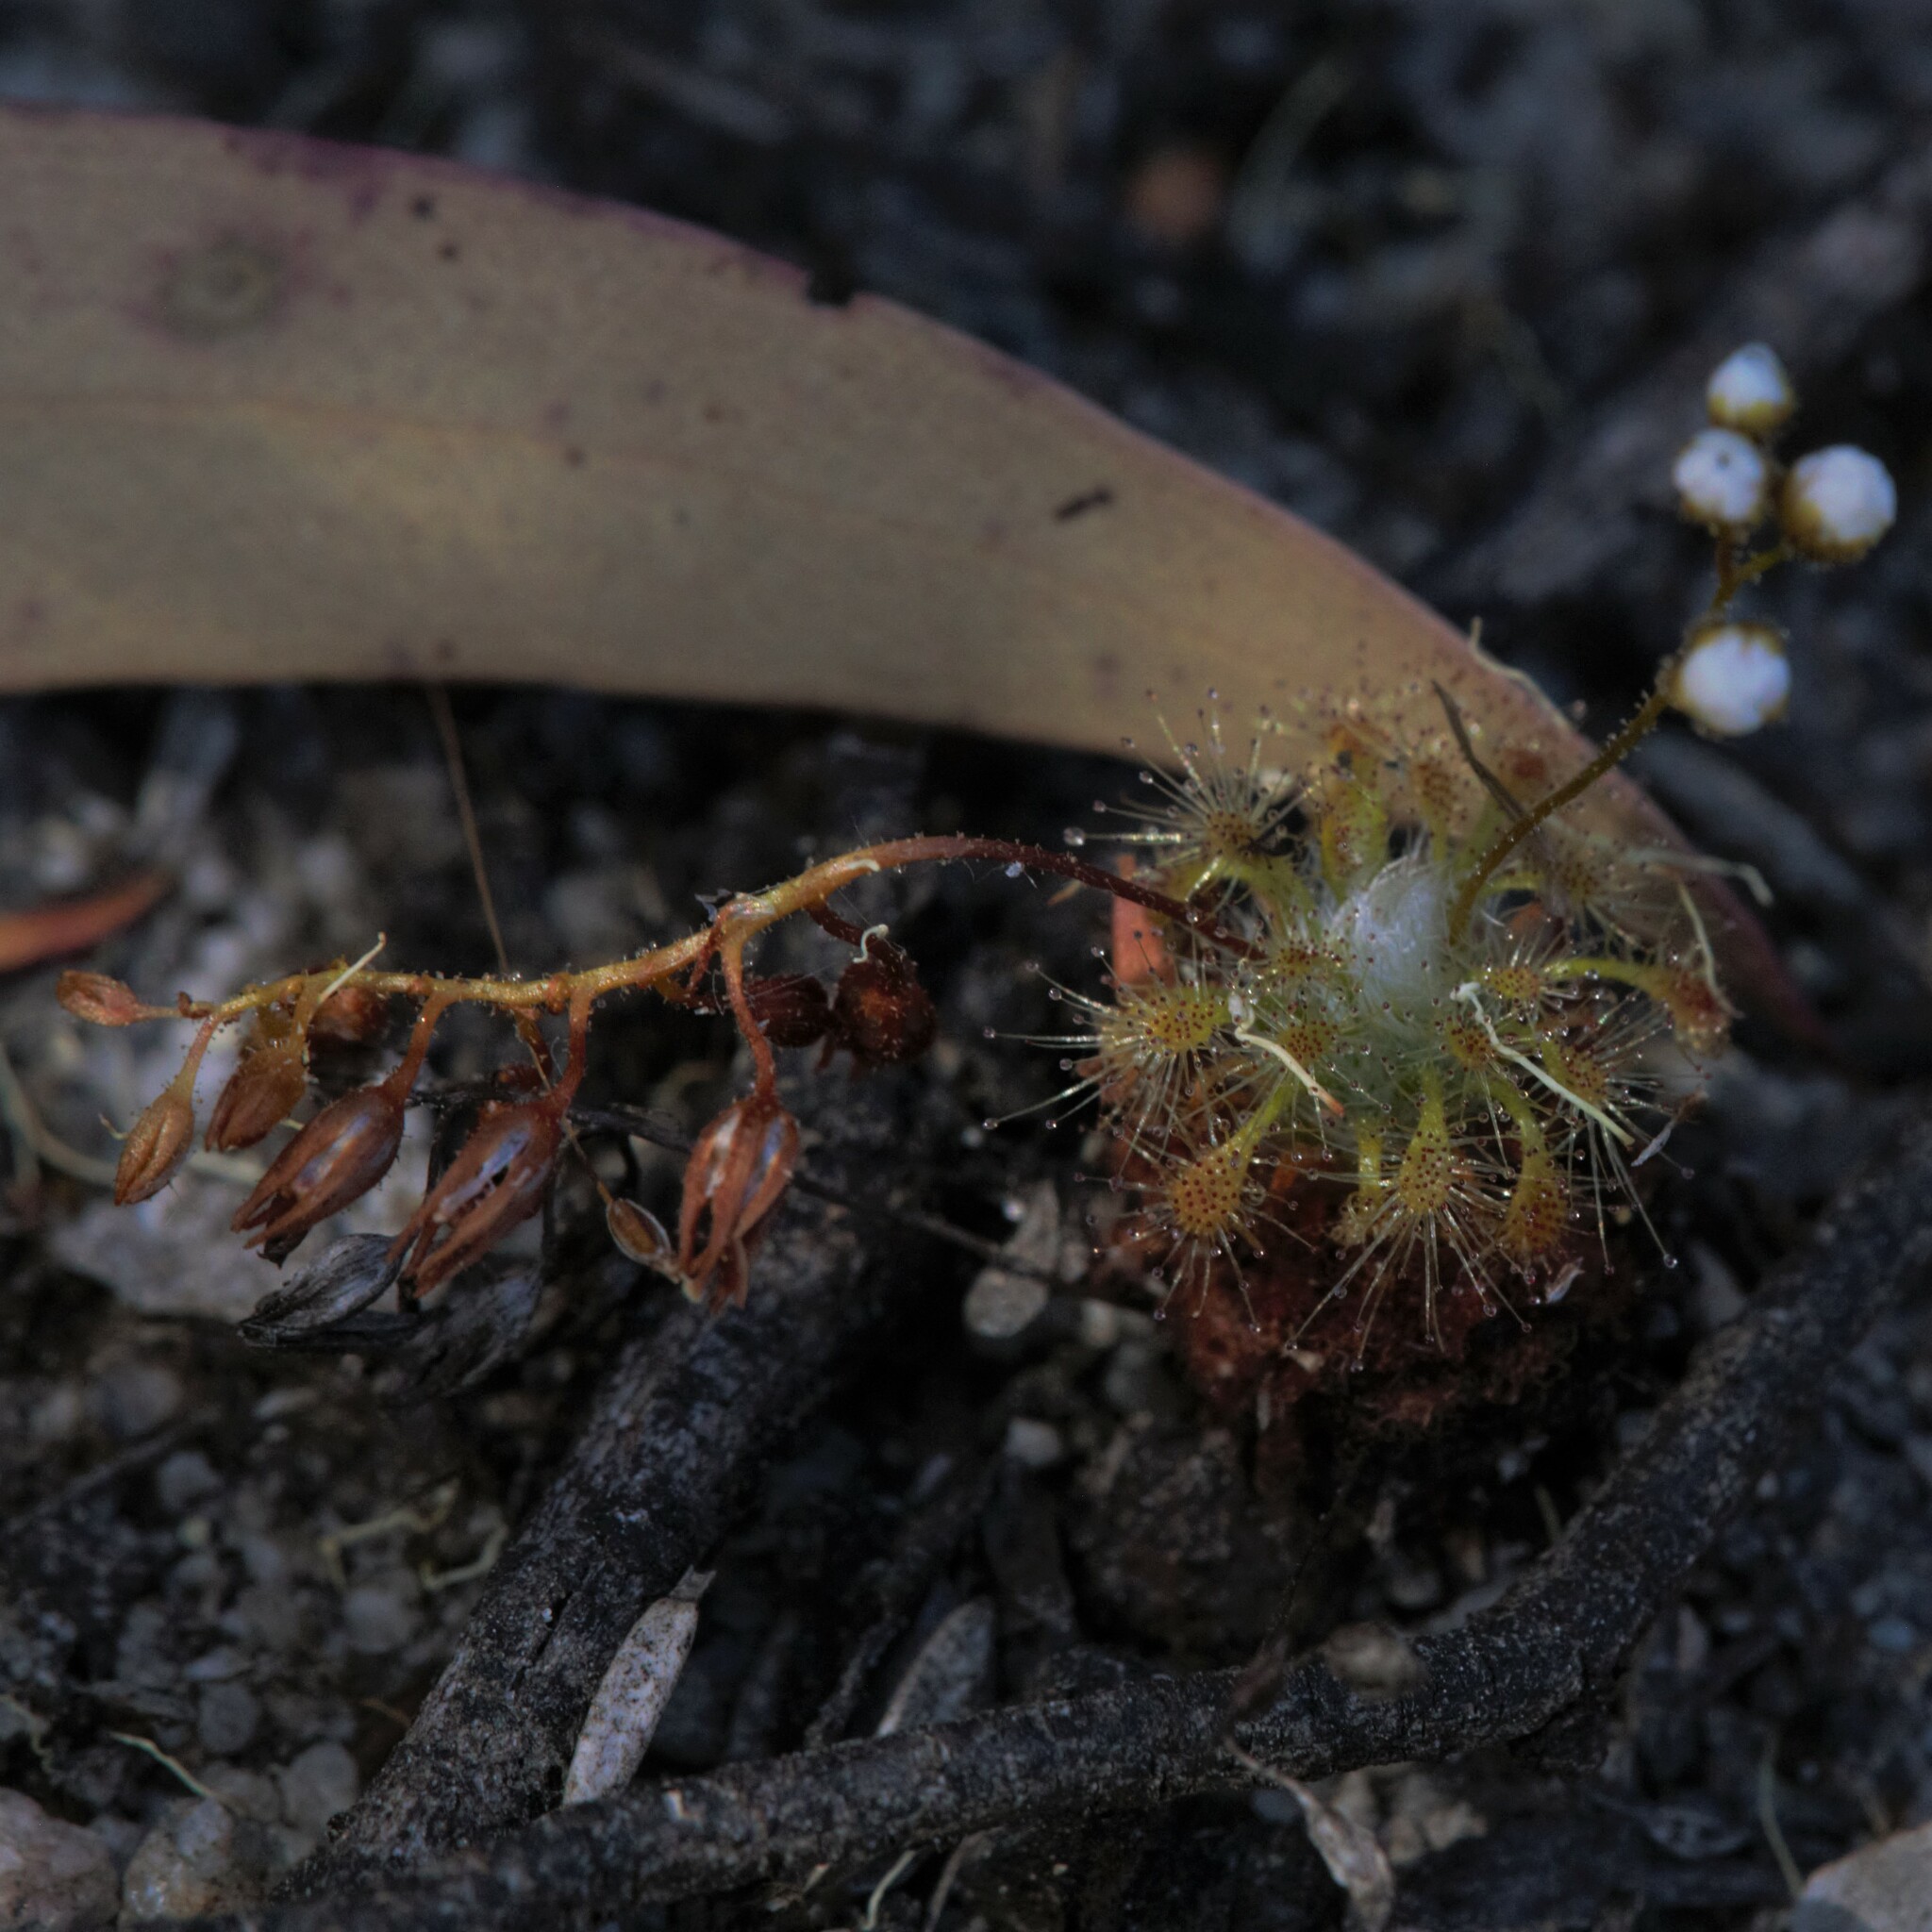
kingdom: Plantae
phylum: Tracheophyta
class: Magnoliopsida
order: Caryophyllales
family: Droseraceae
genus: Drosera
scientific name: Drosera nitidula
